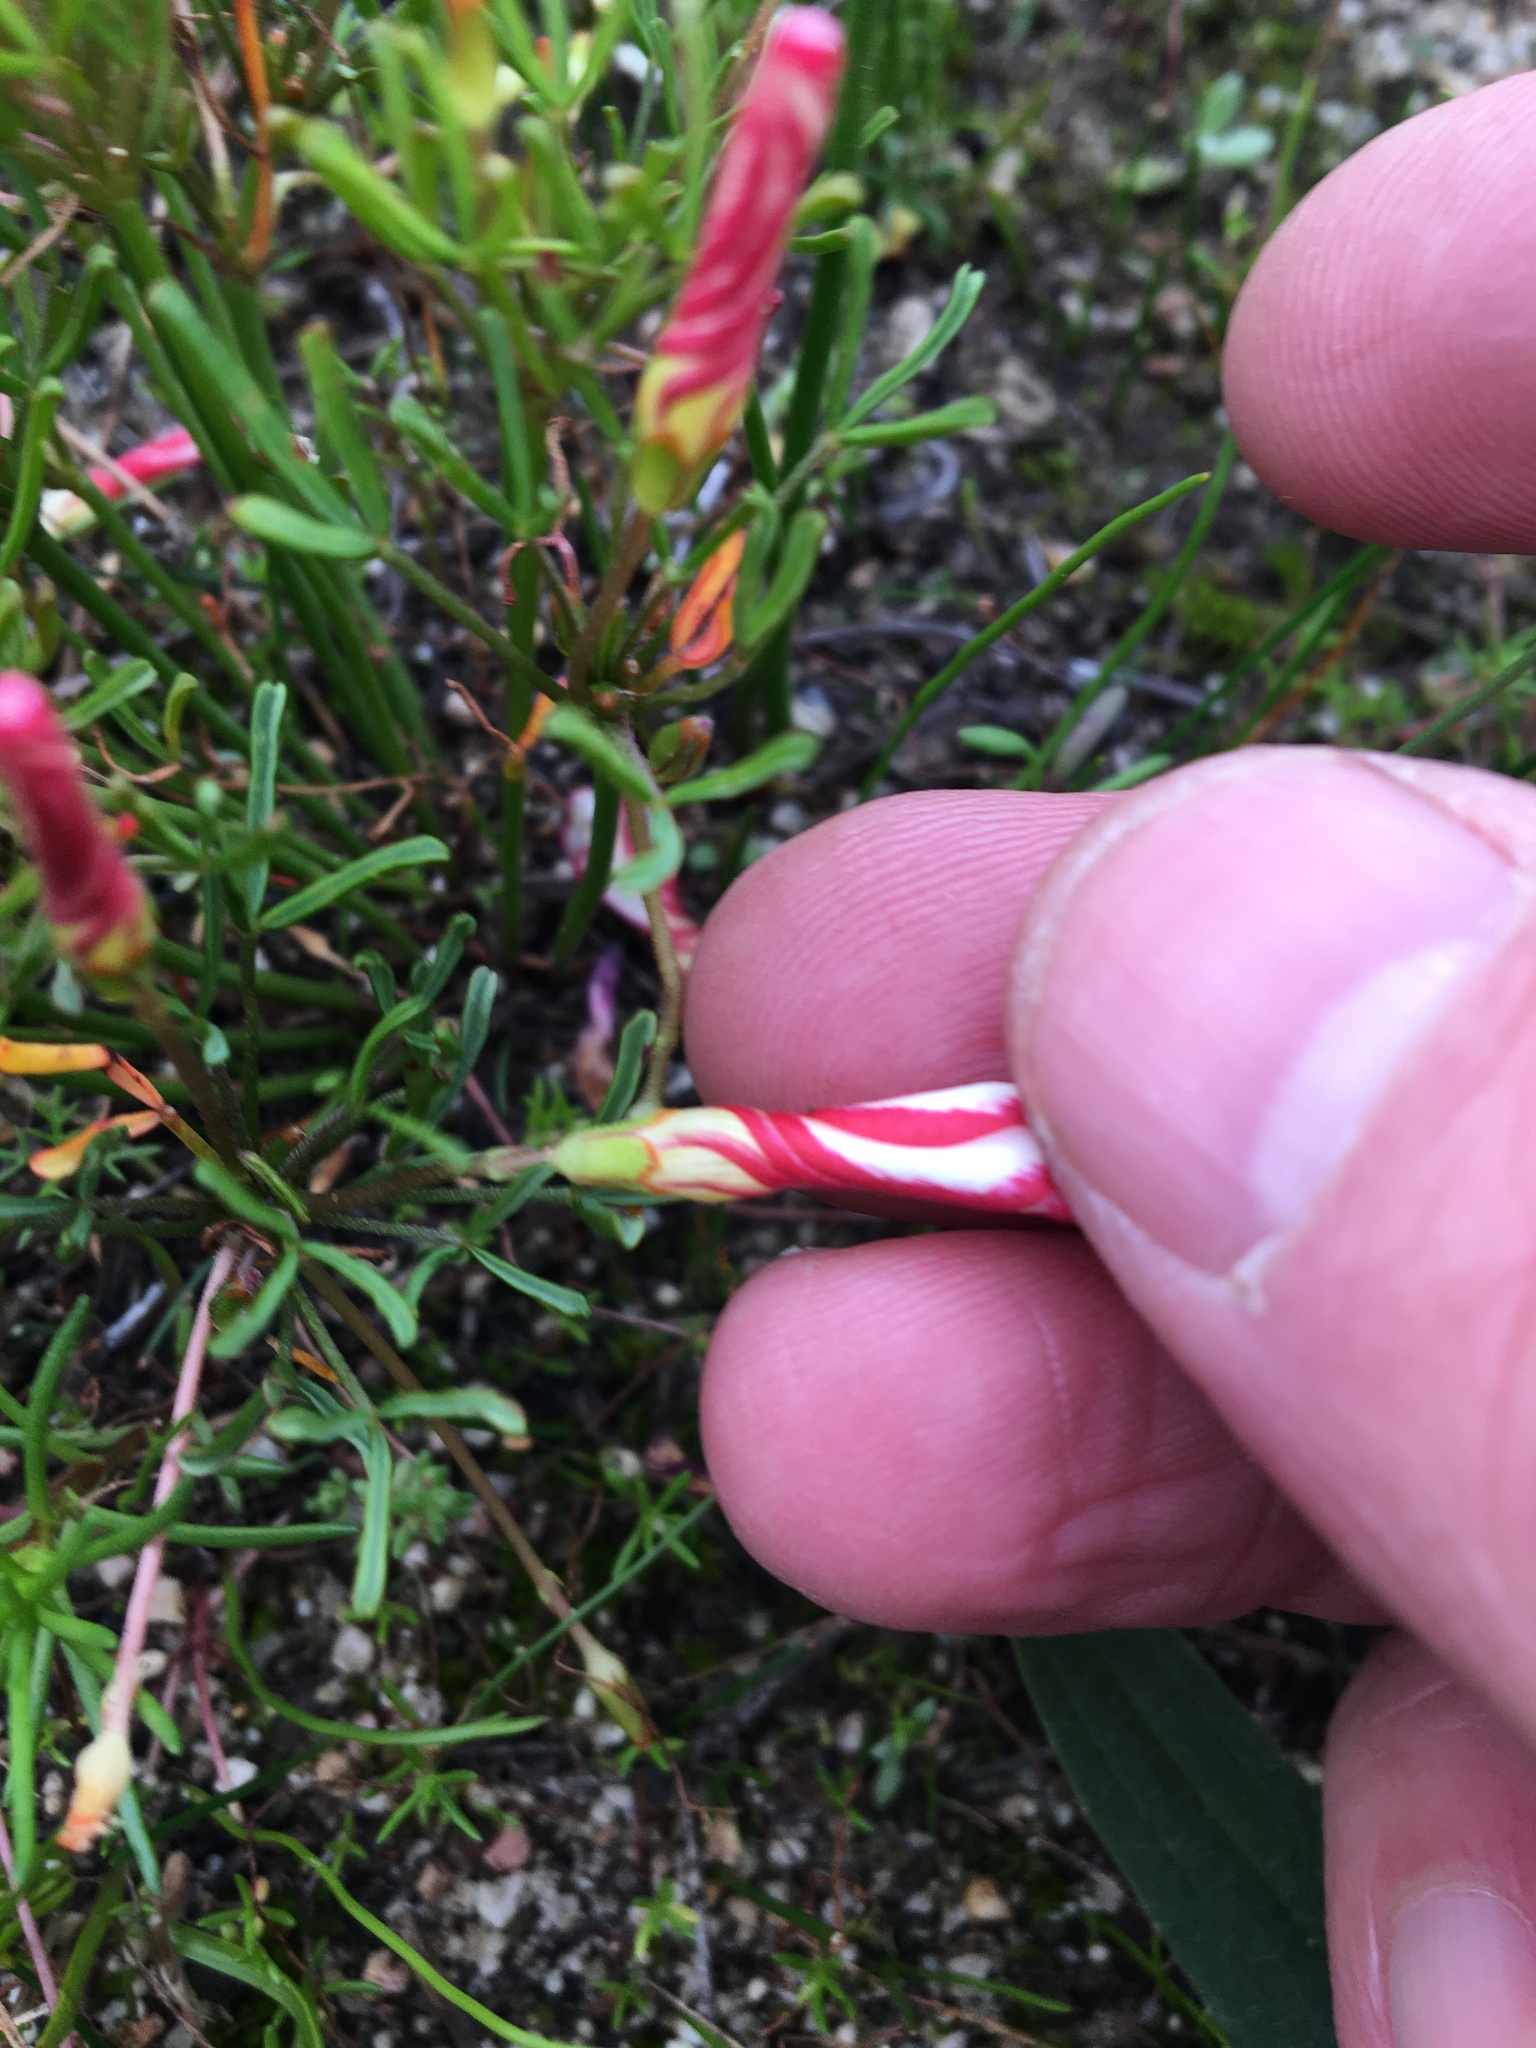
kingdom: Plantae
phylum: Tracheophyta
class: Magnoliopsida
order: Oxalidales
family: Oxalidaceae
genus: Oxalis
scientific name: Oxalis versicolor
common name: Peppermint rock oxalis
